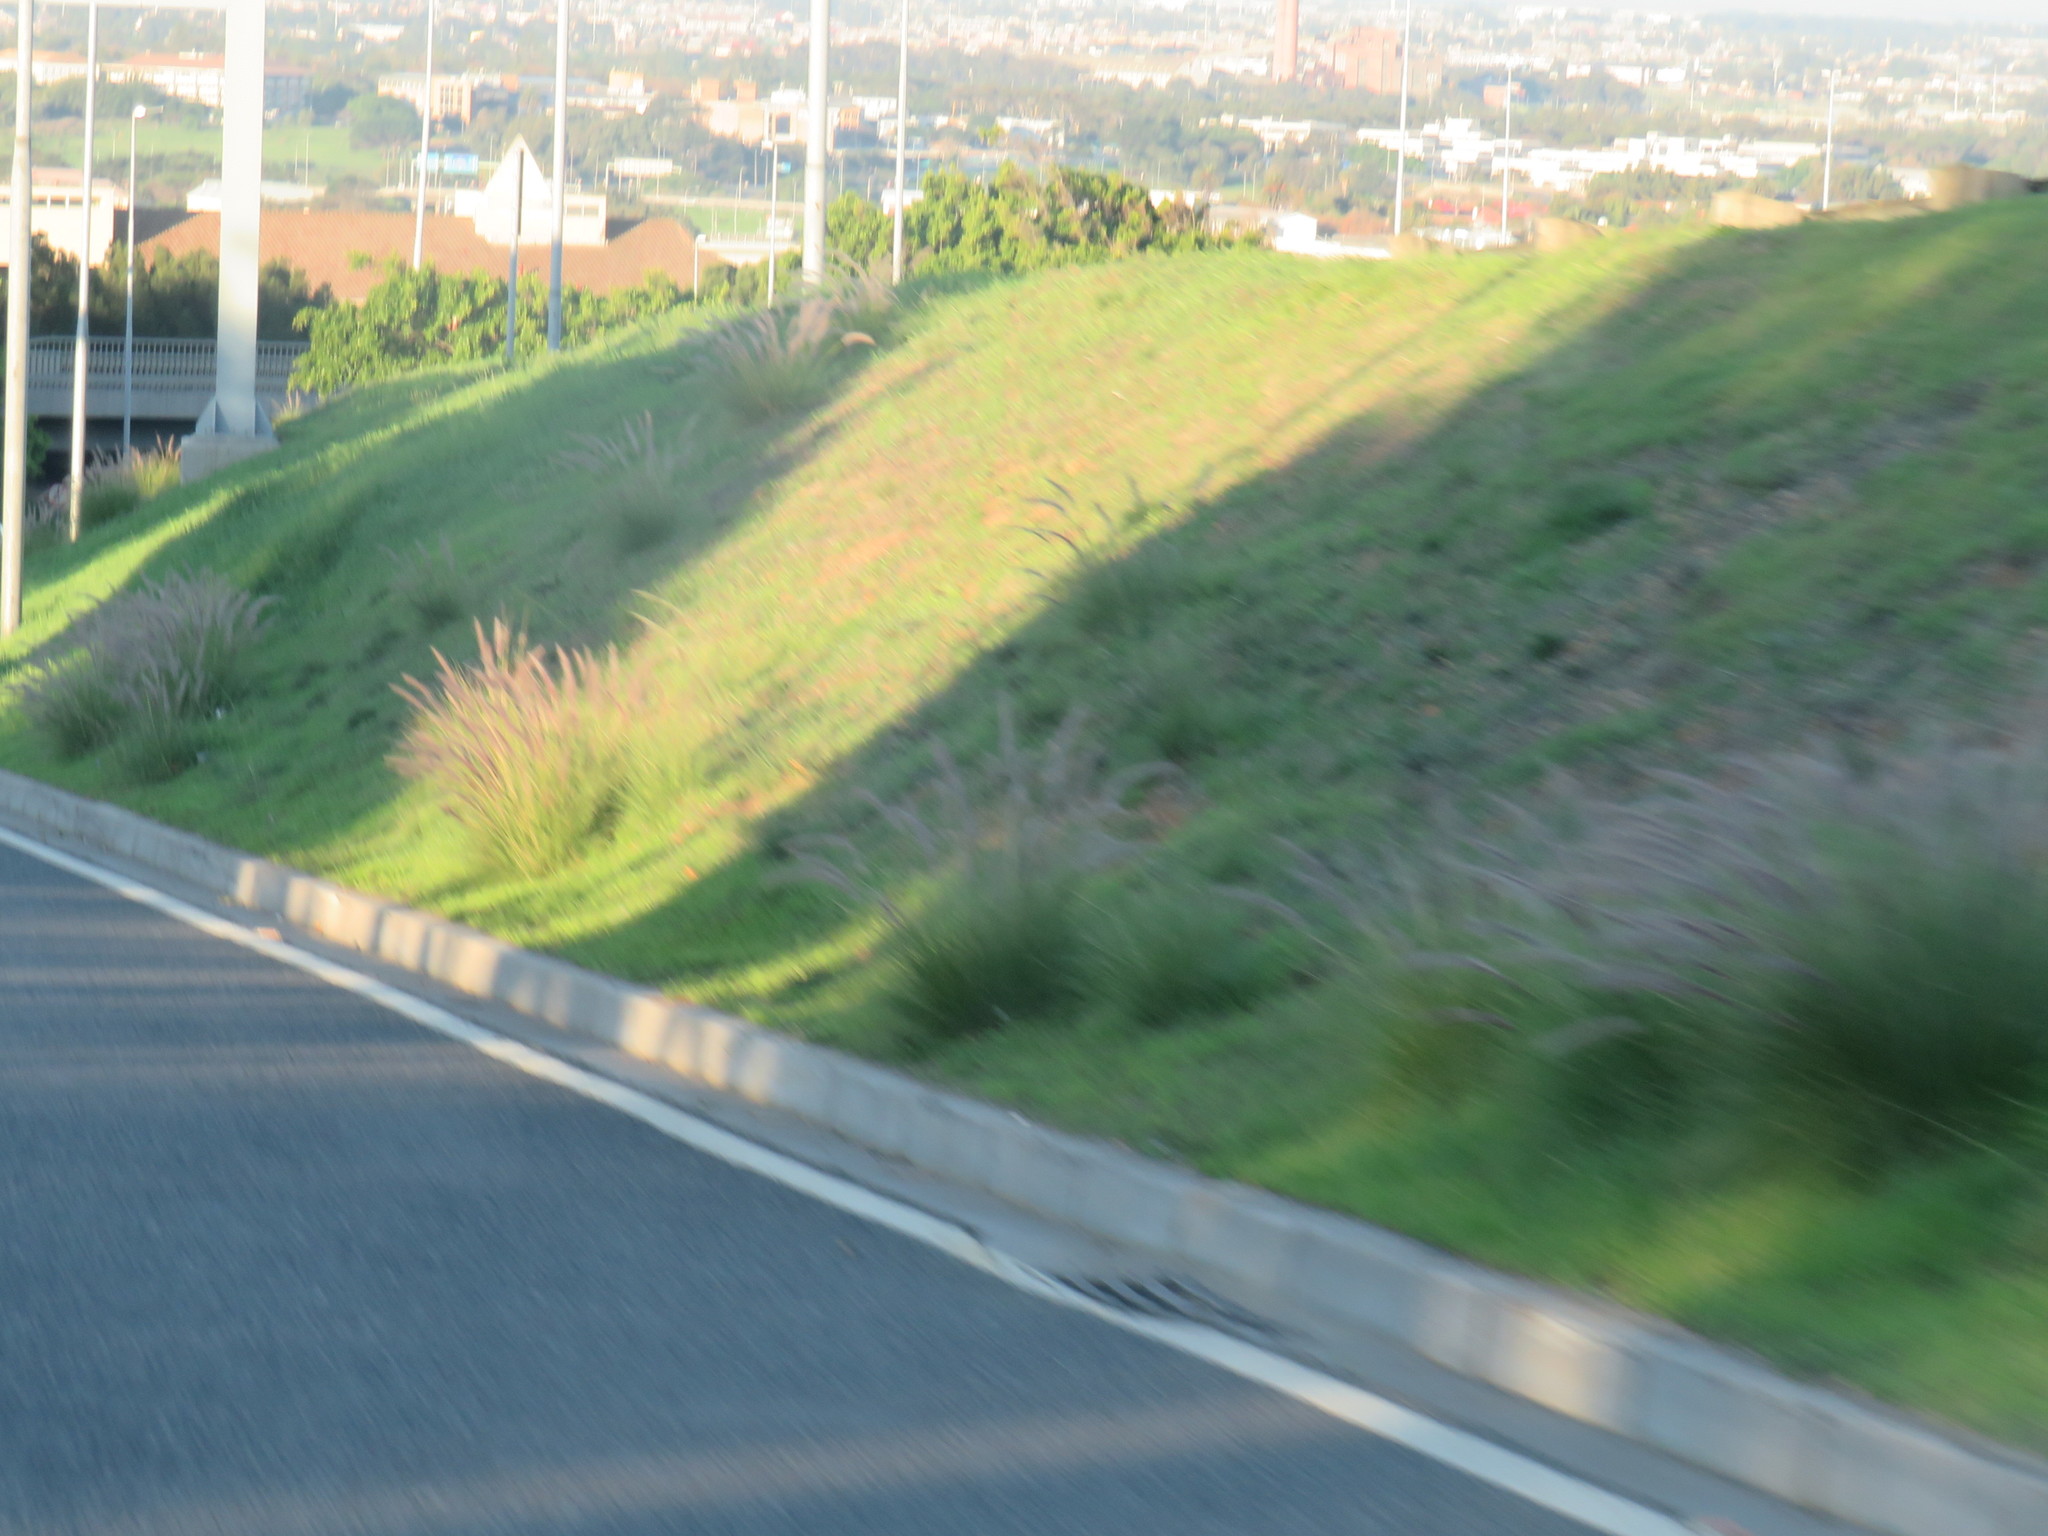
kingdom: Plantae
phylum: Tracheophyta
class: Liliopsida
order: Poales
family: Poaceae
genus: Cenchrus
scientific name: Cenchrus setaceus
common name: Crimson fountaingrass
